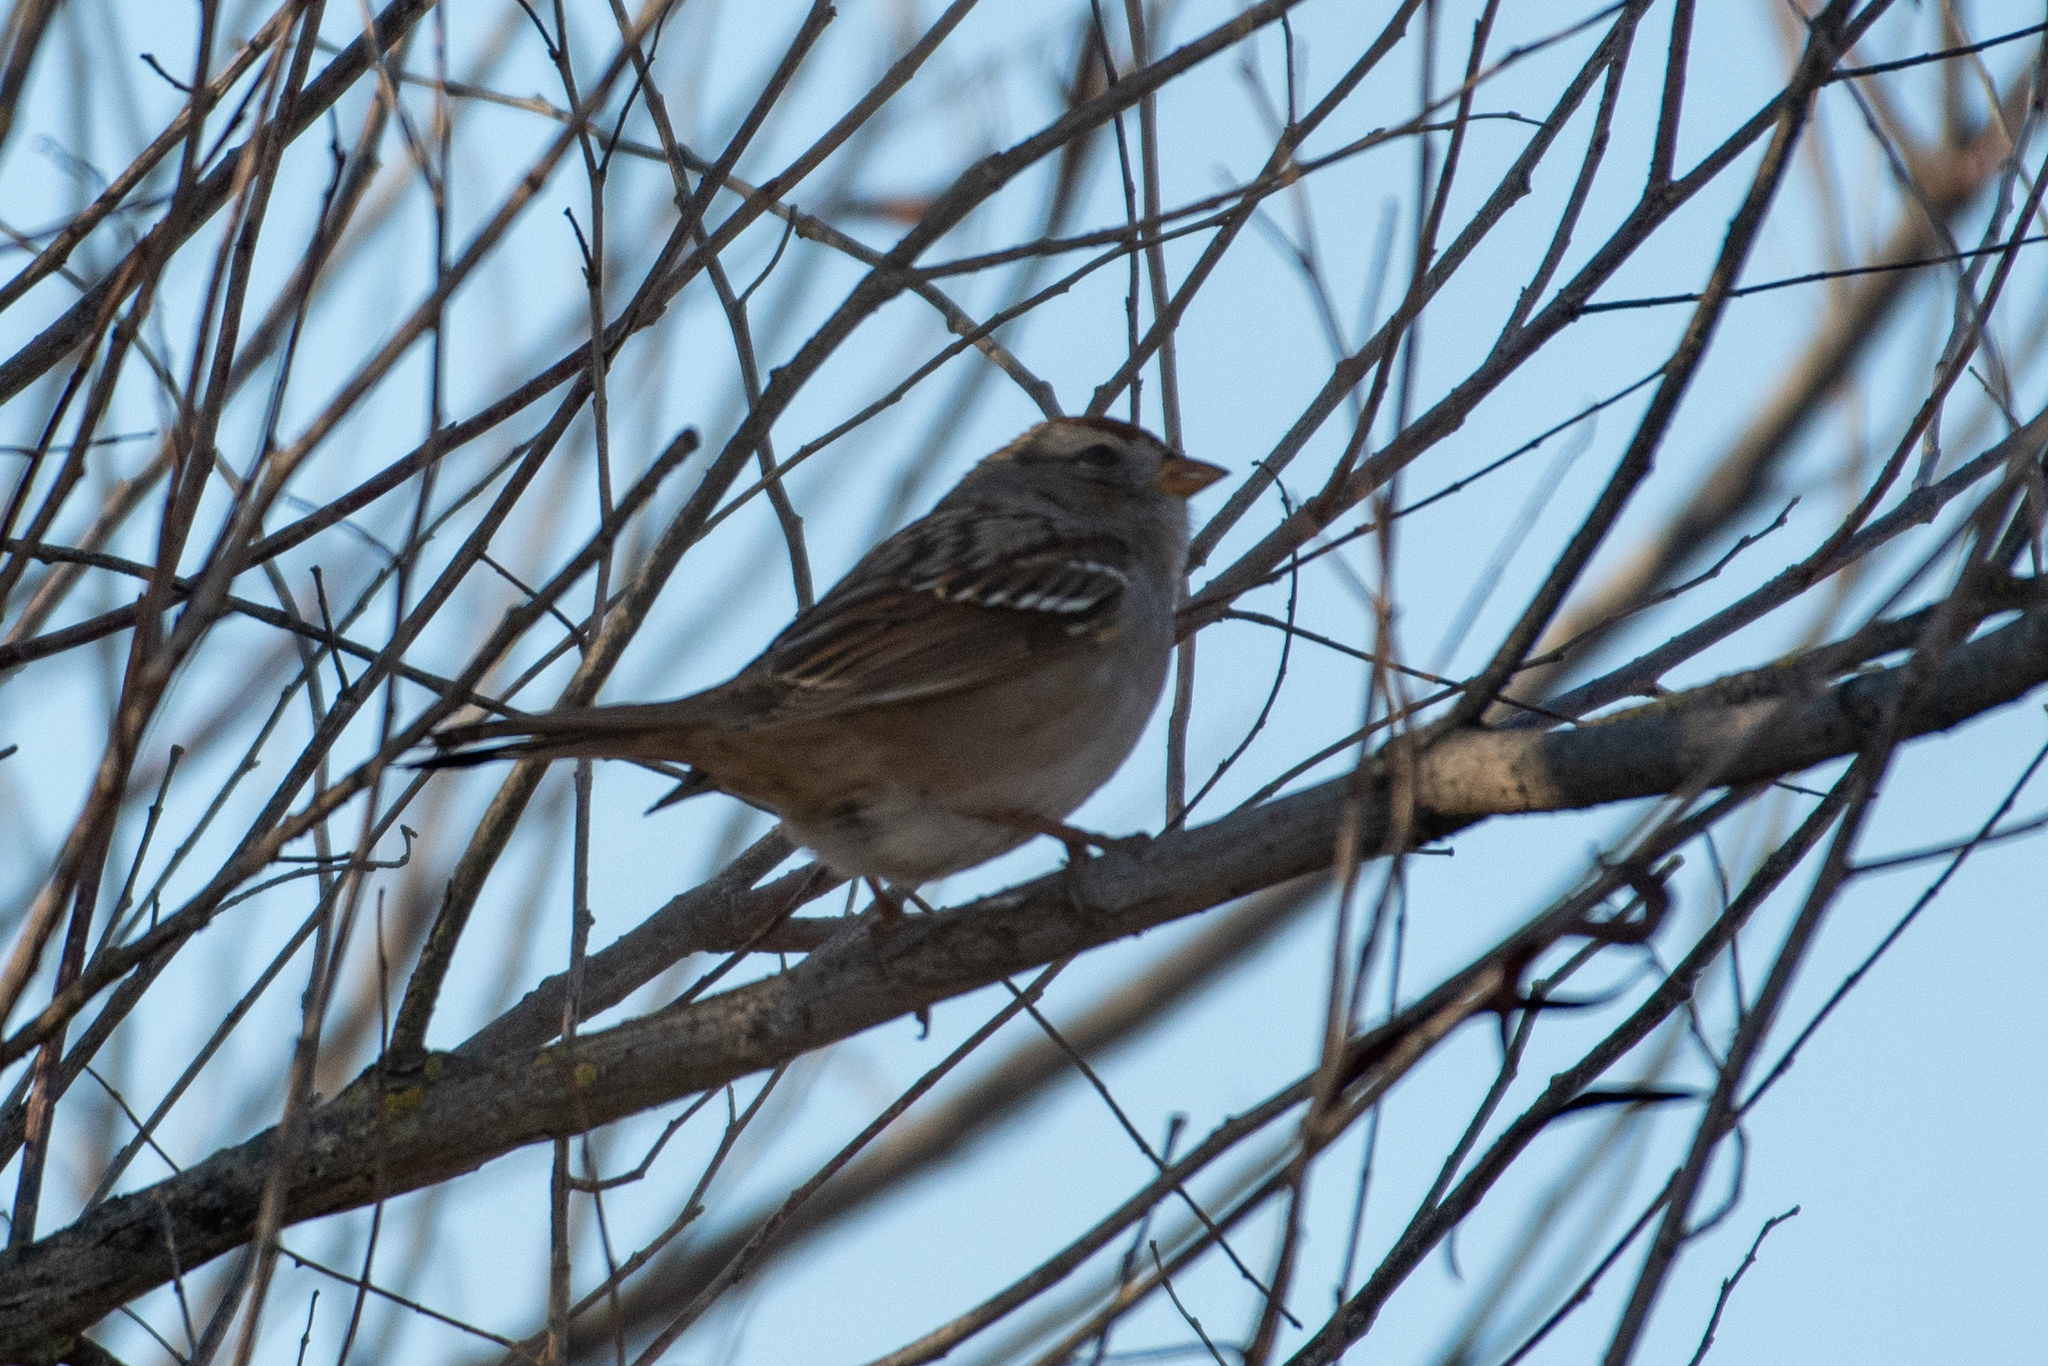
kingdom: Animalia
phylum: Chordata
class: Aves
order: Passeriformes
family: Passerellidae
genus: Zonotrichia
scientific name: Zonotrichia leucophrys
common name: White-crowned sparrow
